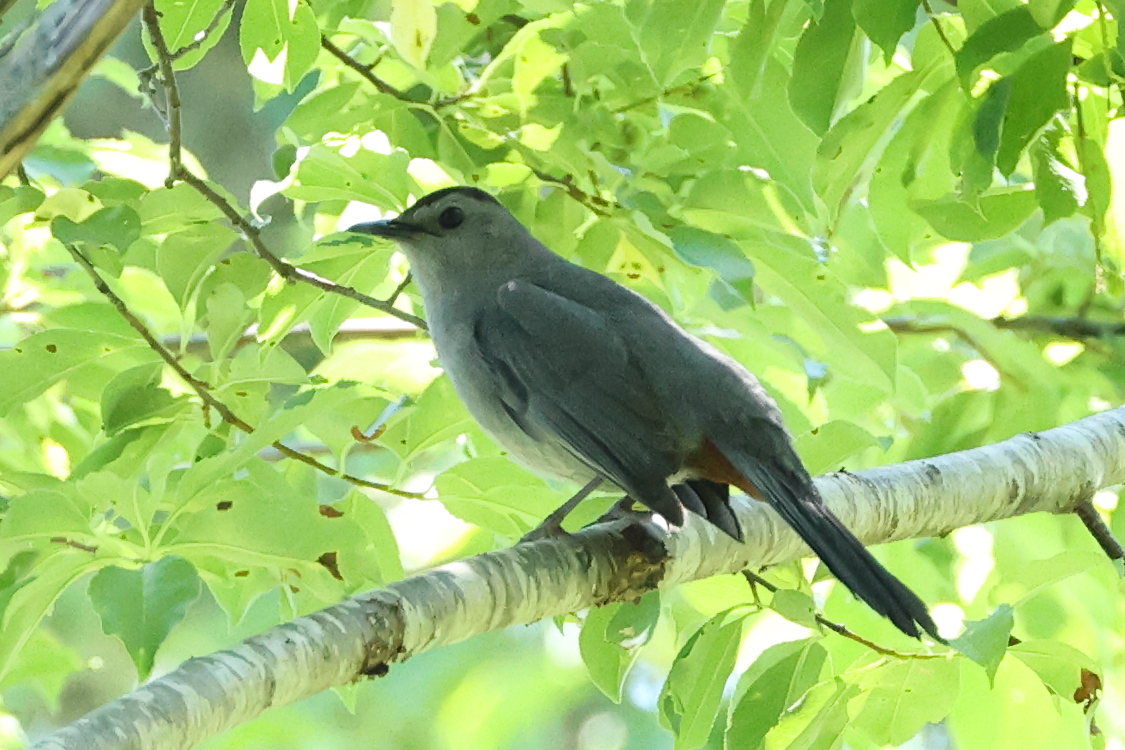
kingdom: Animalia
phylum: Chordata
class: Aves
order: Passeriformes
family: Mimidae
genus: Dumetella
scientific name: Dumetella carolinensis
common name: Gray catbird
